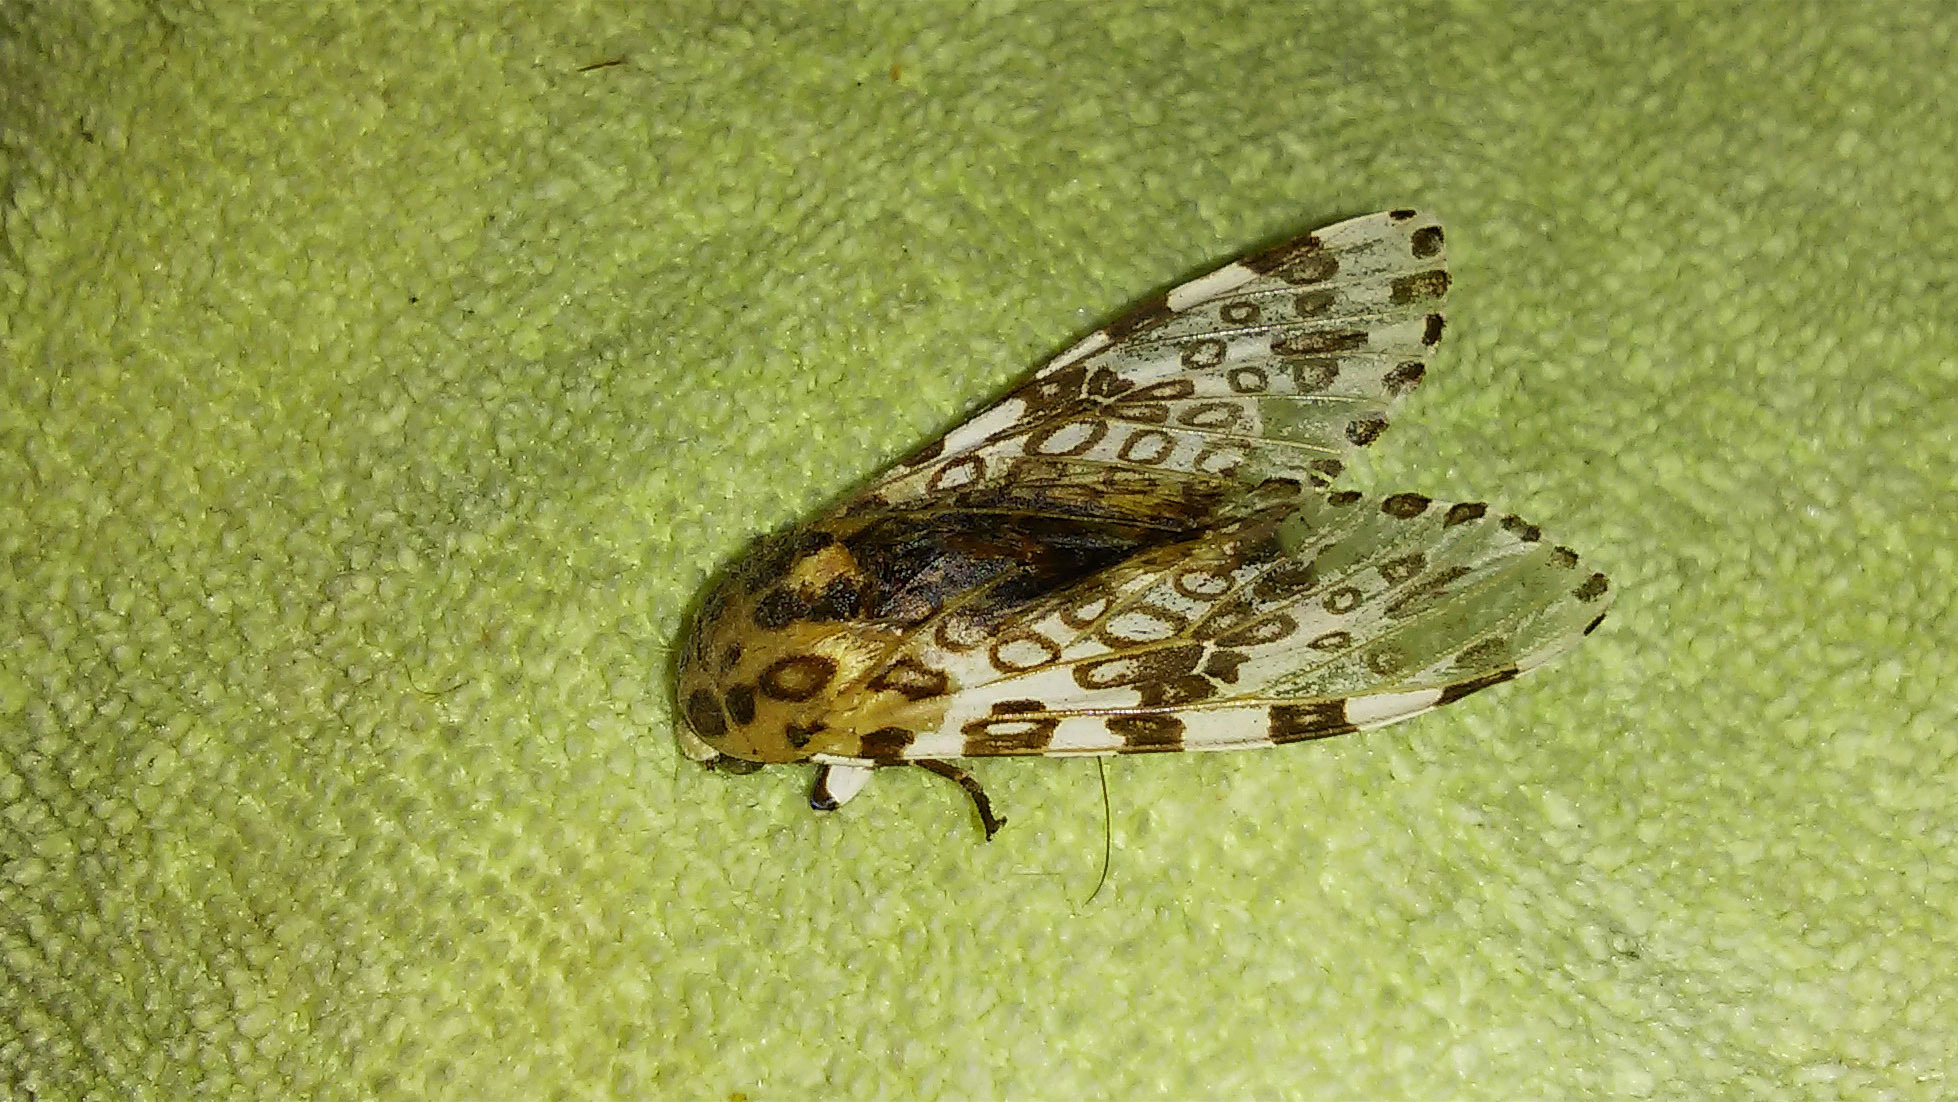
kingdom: Animalia
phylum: Arthropoda
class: Insecta
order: Lepidoptera
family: Erebidae
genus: Hypercompe
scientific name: Hypercompe scribonia
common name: Giant leopard moth
